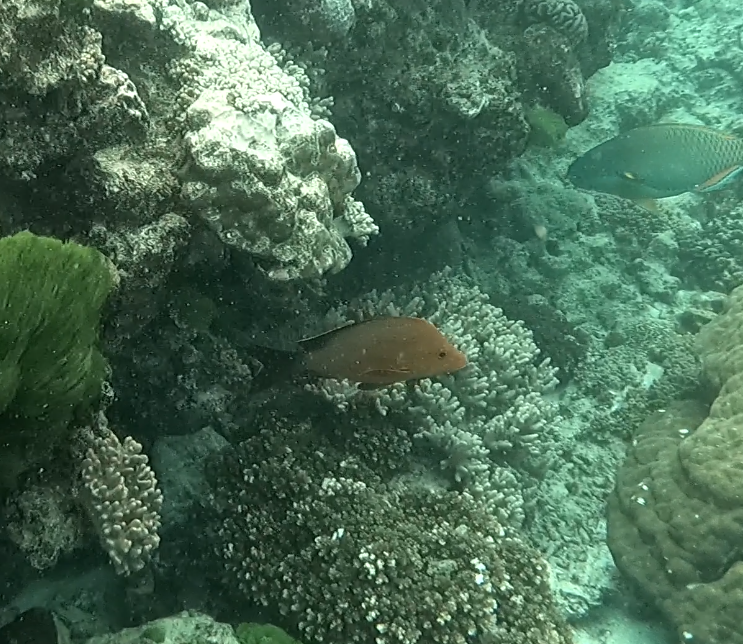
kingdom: Animalia
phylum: Chordata
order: Perciformes
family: Lutjanidae
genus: Lutjanus
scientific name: Lutjanus gibbus
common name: Humpback snapper
